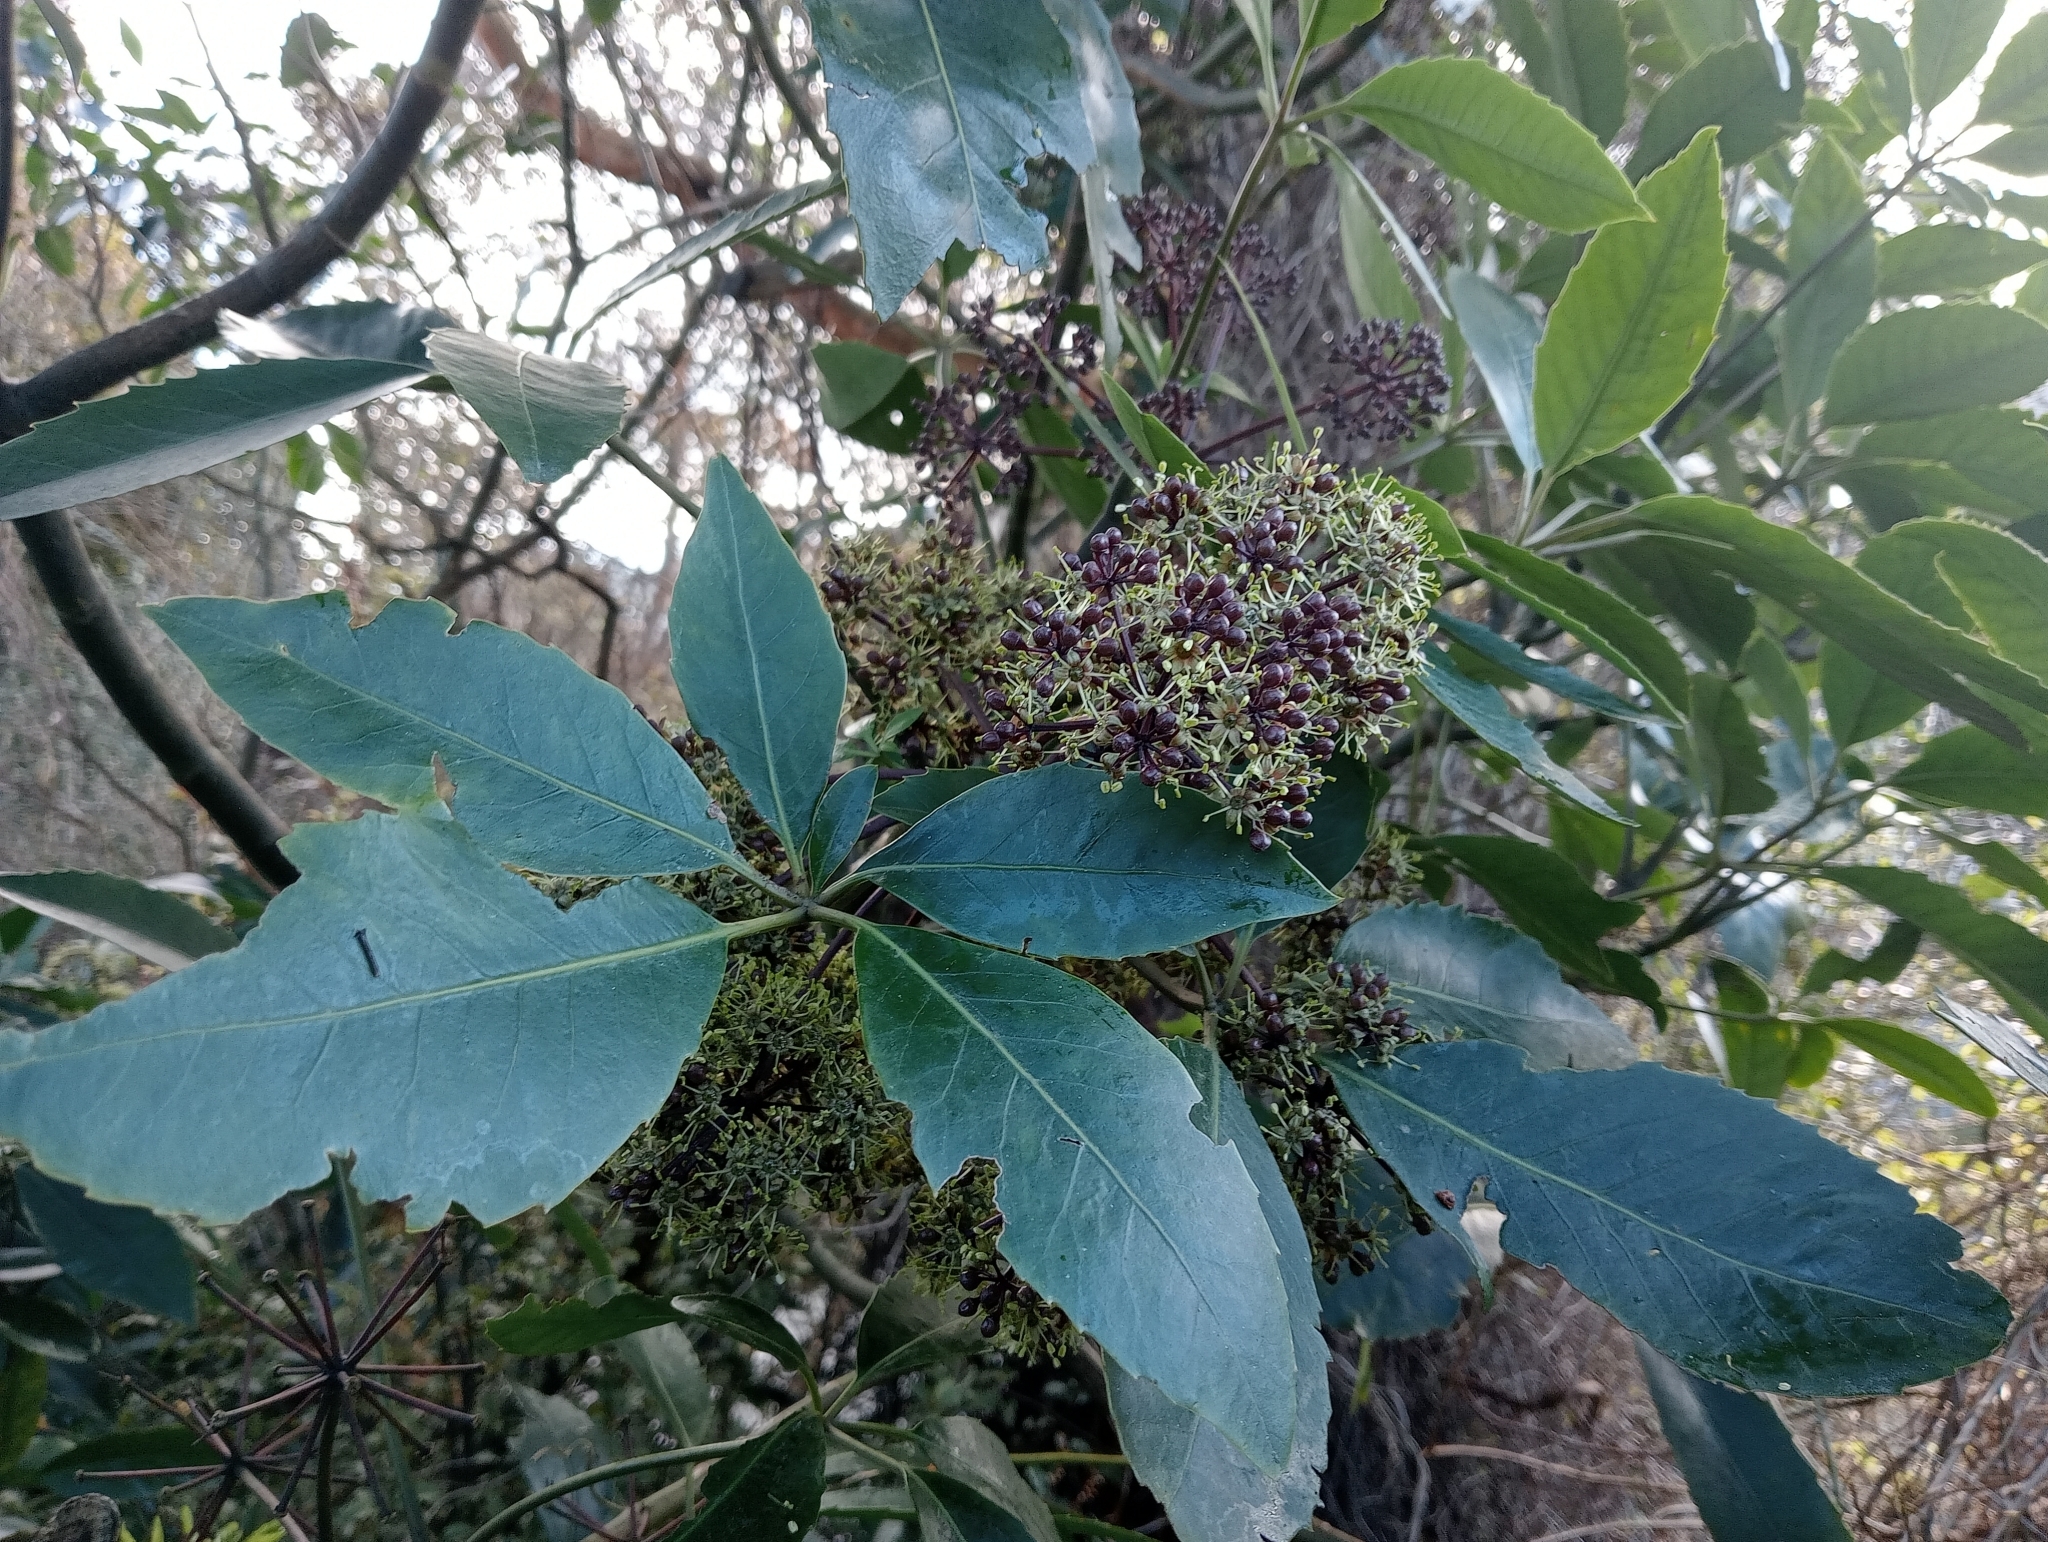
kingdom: Plantae
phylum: Tracheophyta
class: Magnoliopsida
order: Apiales
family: Araliaceae
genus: Neopanax
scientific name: Neopanax arboreus
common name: Five-fingers
